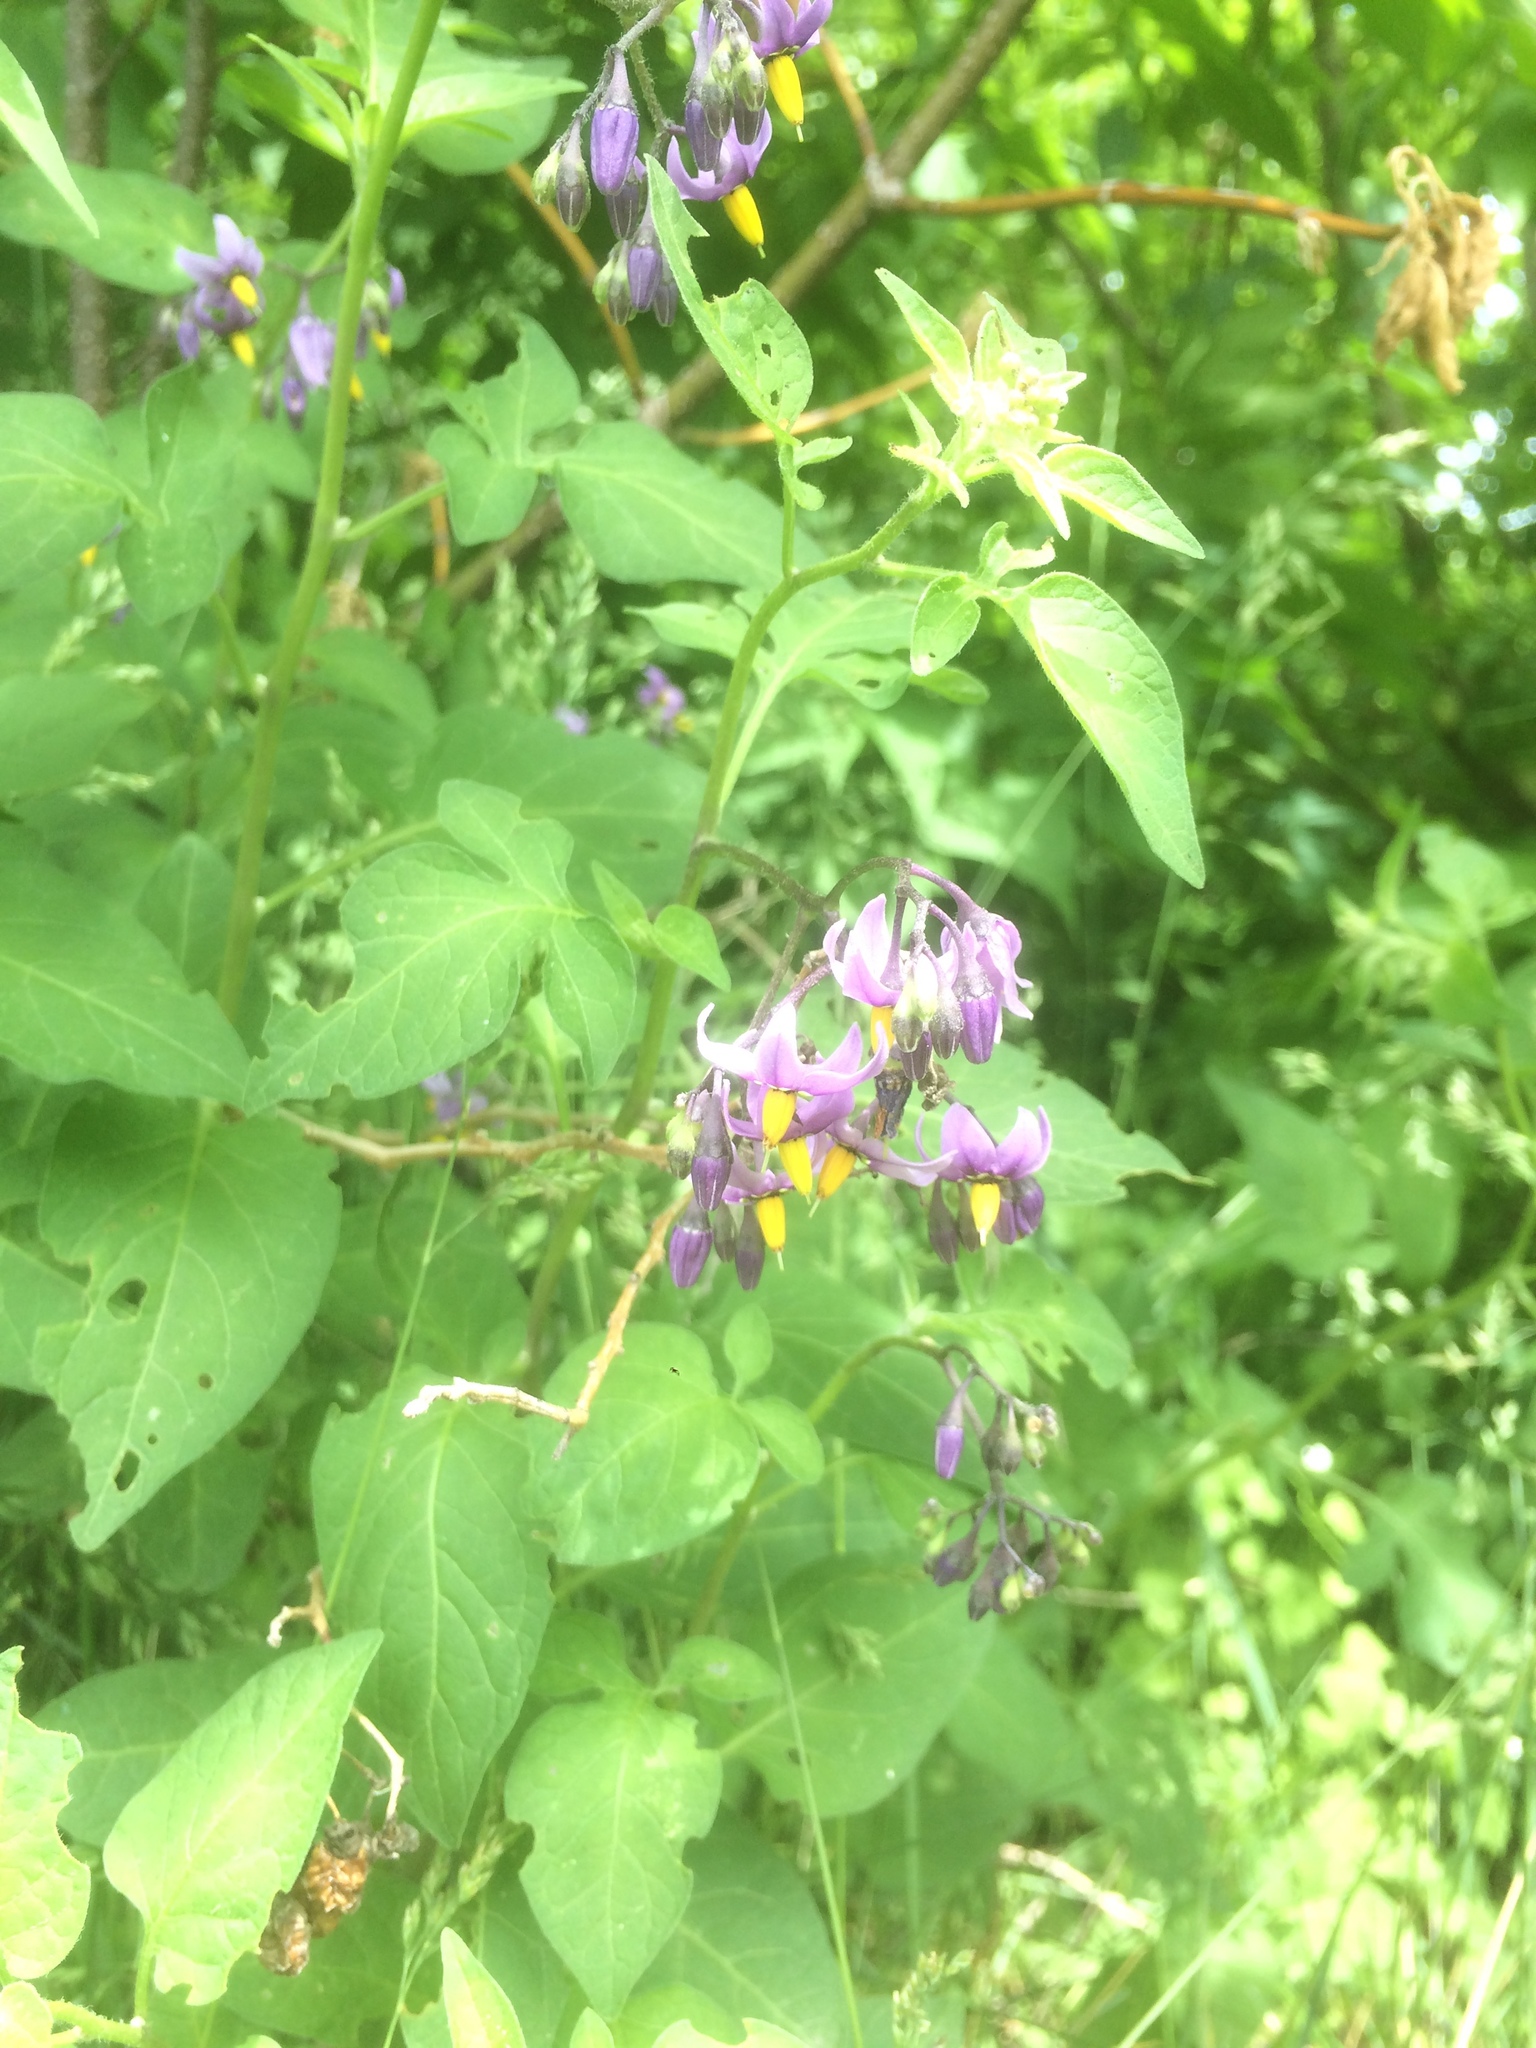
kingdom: Plantae
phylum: Tracheophyta
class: Magnoliopsida
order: Solanales
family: Solanaceae
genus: Solanum
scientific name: Solanum dulcamara
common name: Climbing nightshade
